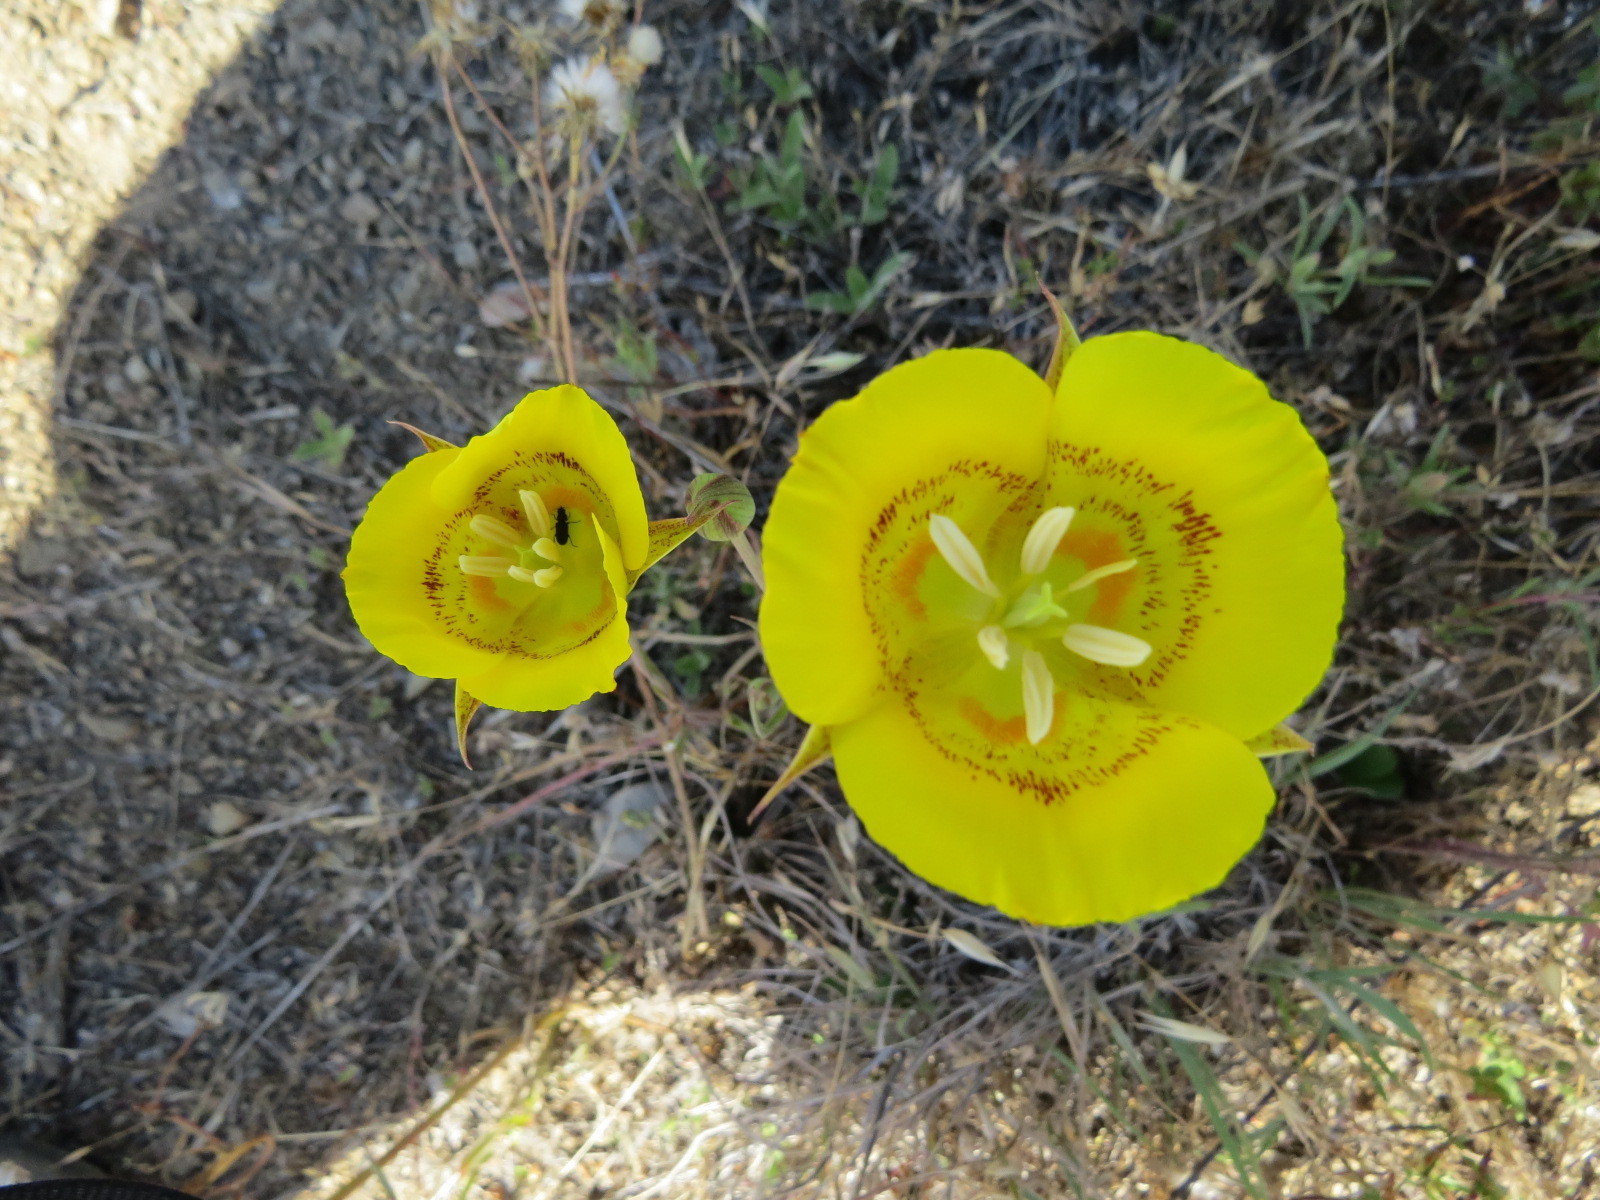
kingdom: Plantae
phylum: Tracheophyta
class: Liliopsida
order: Liliales
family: Liliaceae
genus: Calochortus
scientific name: Calochortus luteus
